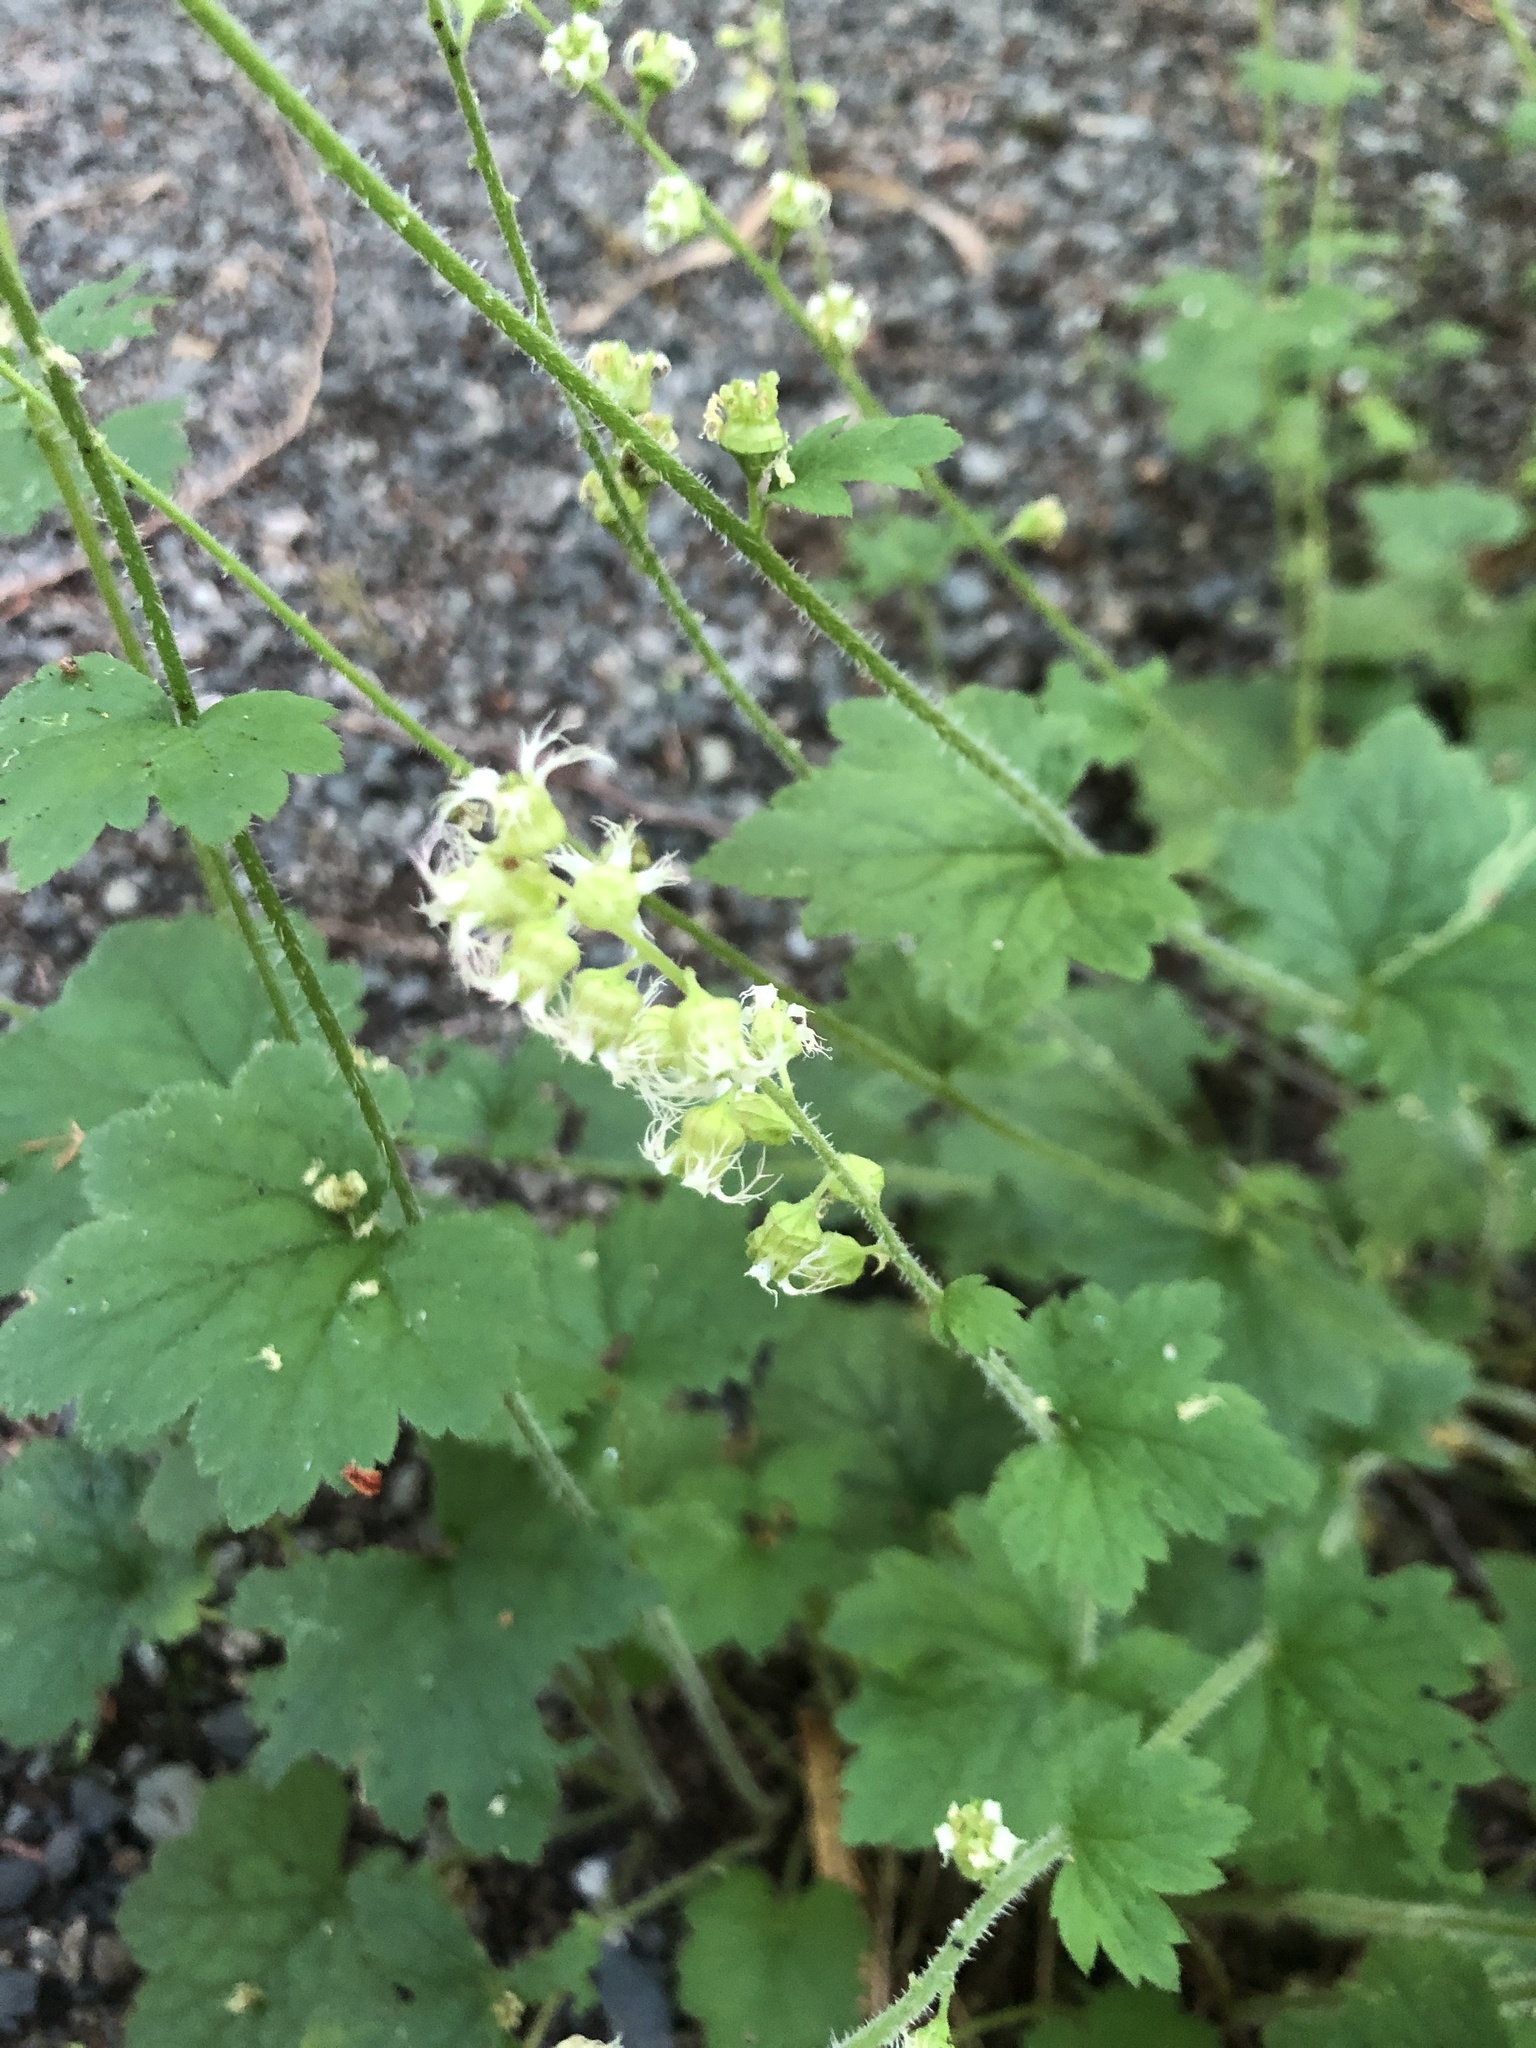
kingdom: Plantae
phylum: Tracheophyta
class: Magnoliopsida
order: Saxifragales
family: Saxifragaceae
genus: Tellima
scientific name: Tellima grandiflora
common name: Fringecups
